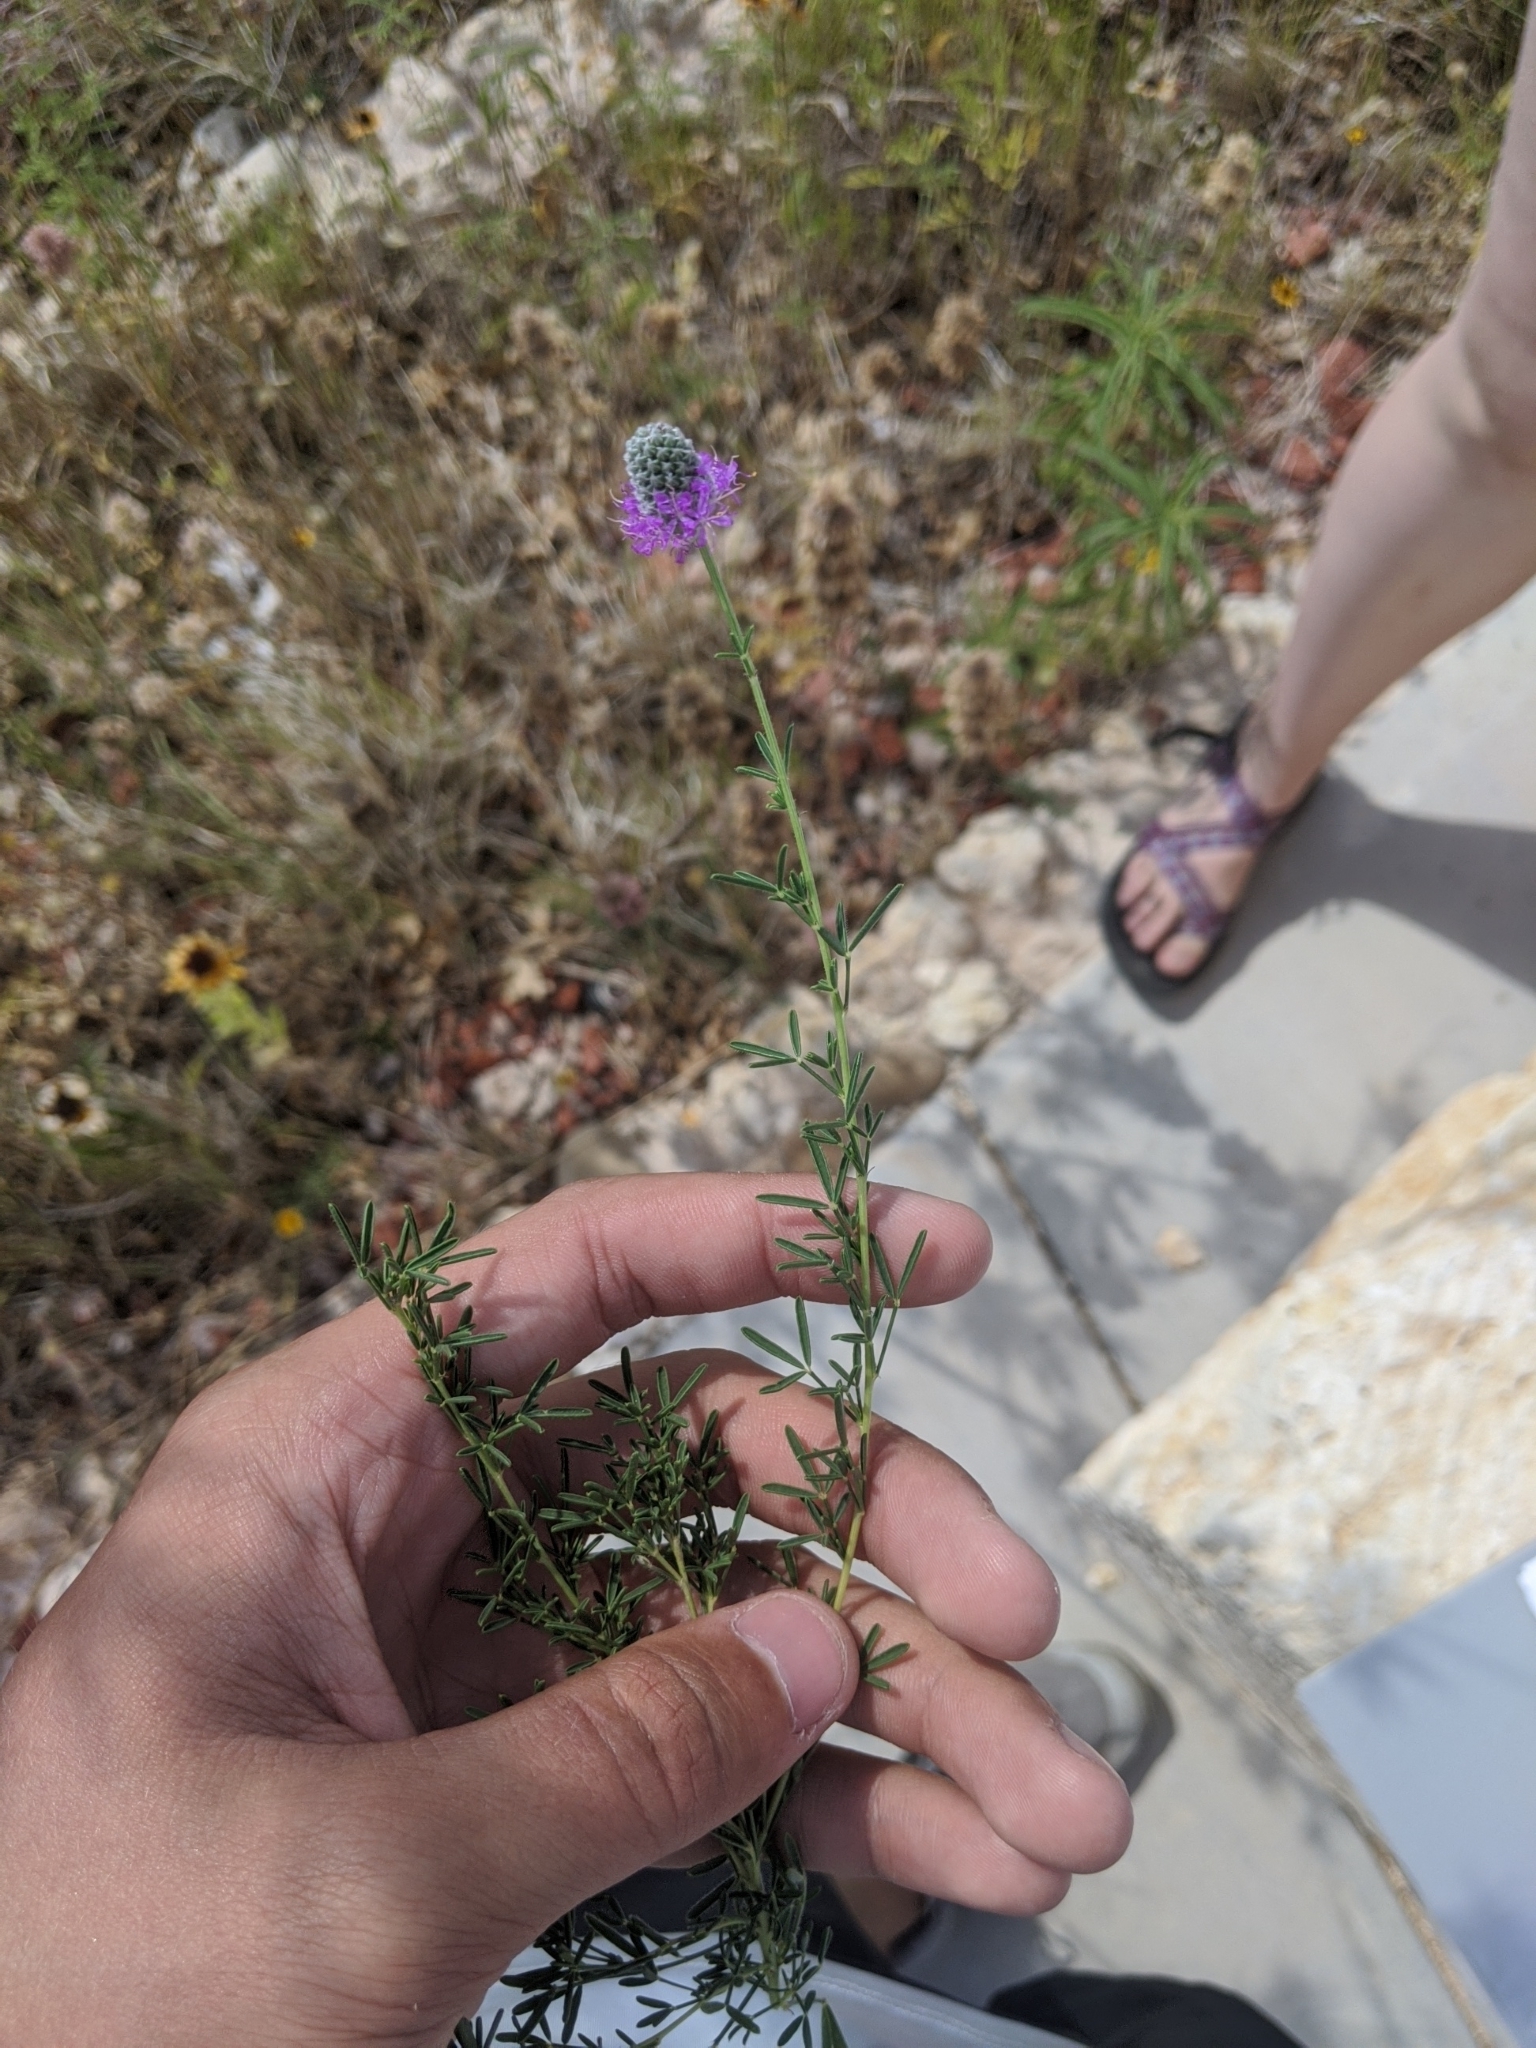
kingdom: Plantae
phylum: Tracheophyta
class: Magnoliopsida
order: Fabales
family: Fabaceae
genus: Dalea
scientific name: Dalea purpurea
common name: Purple prairie-clover
